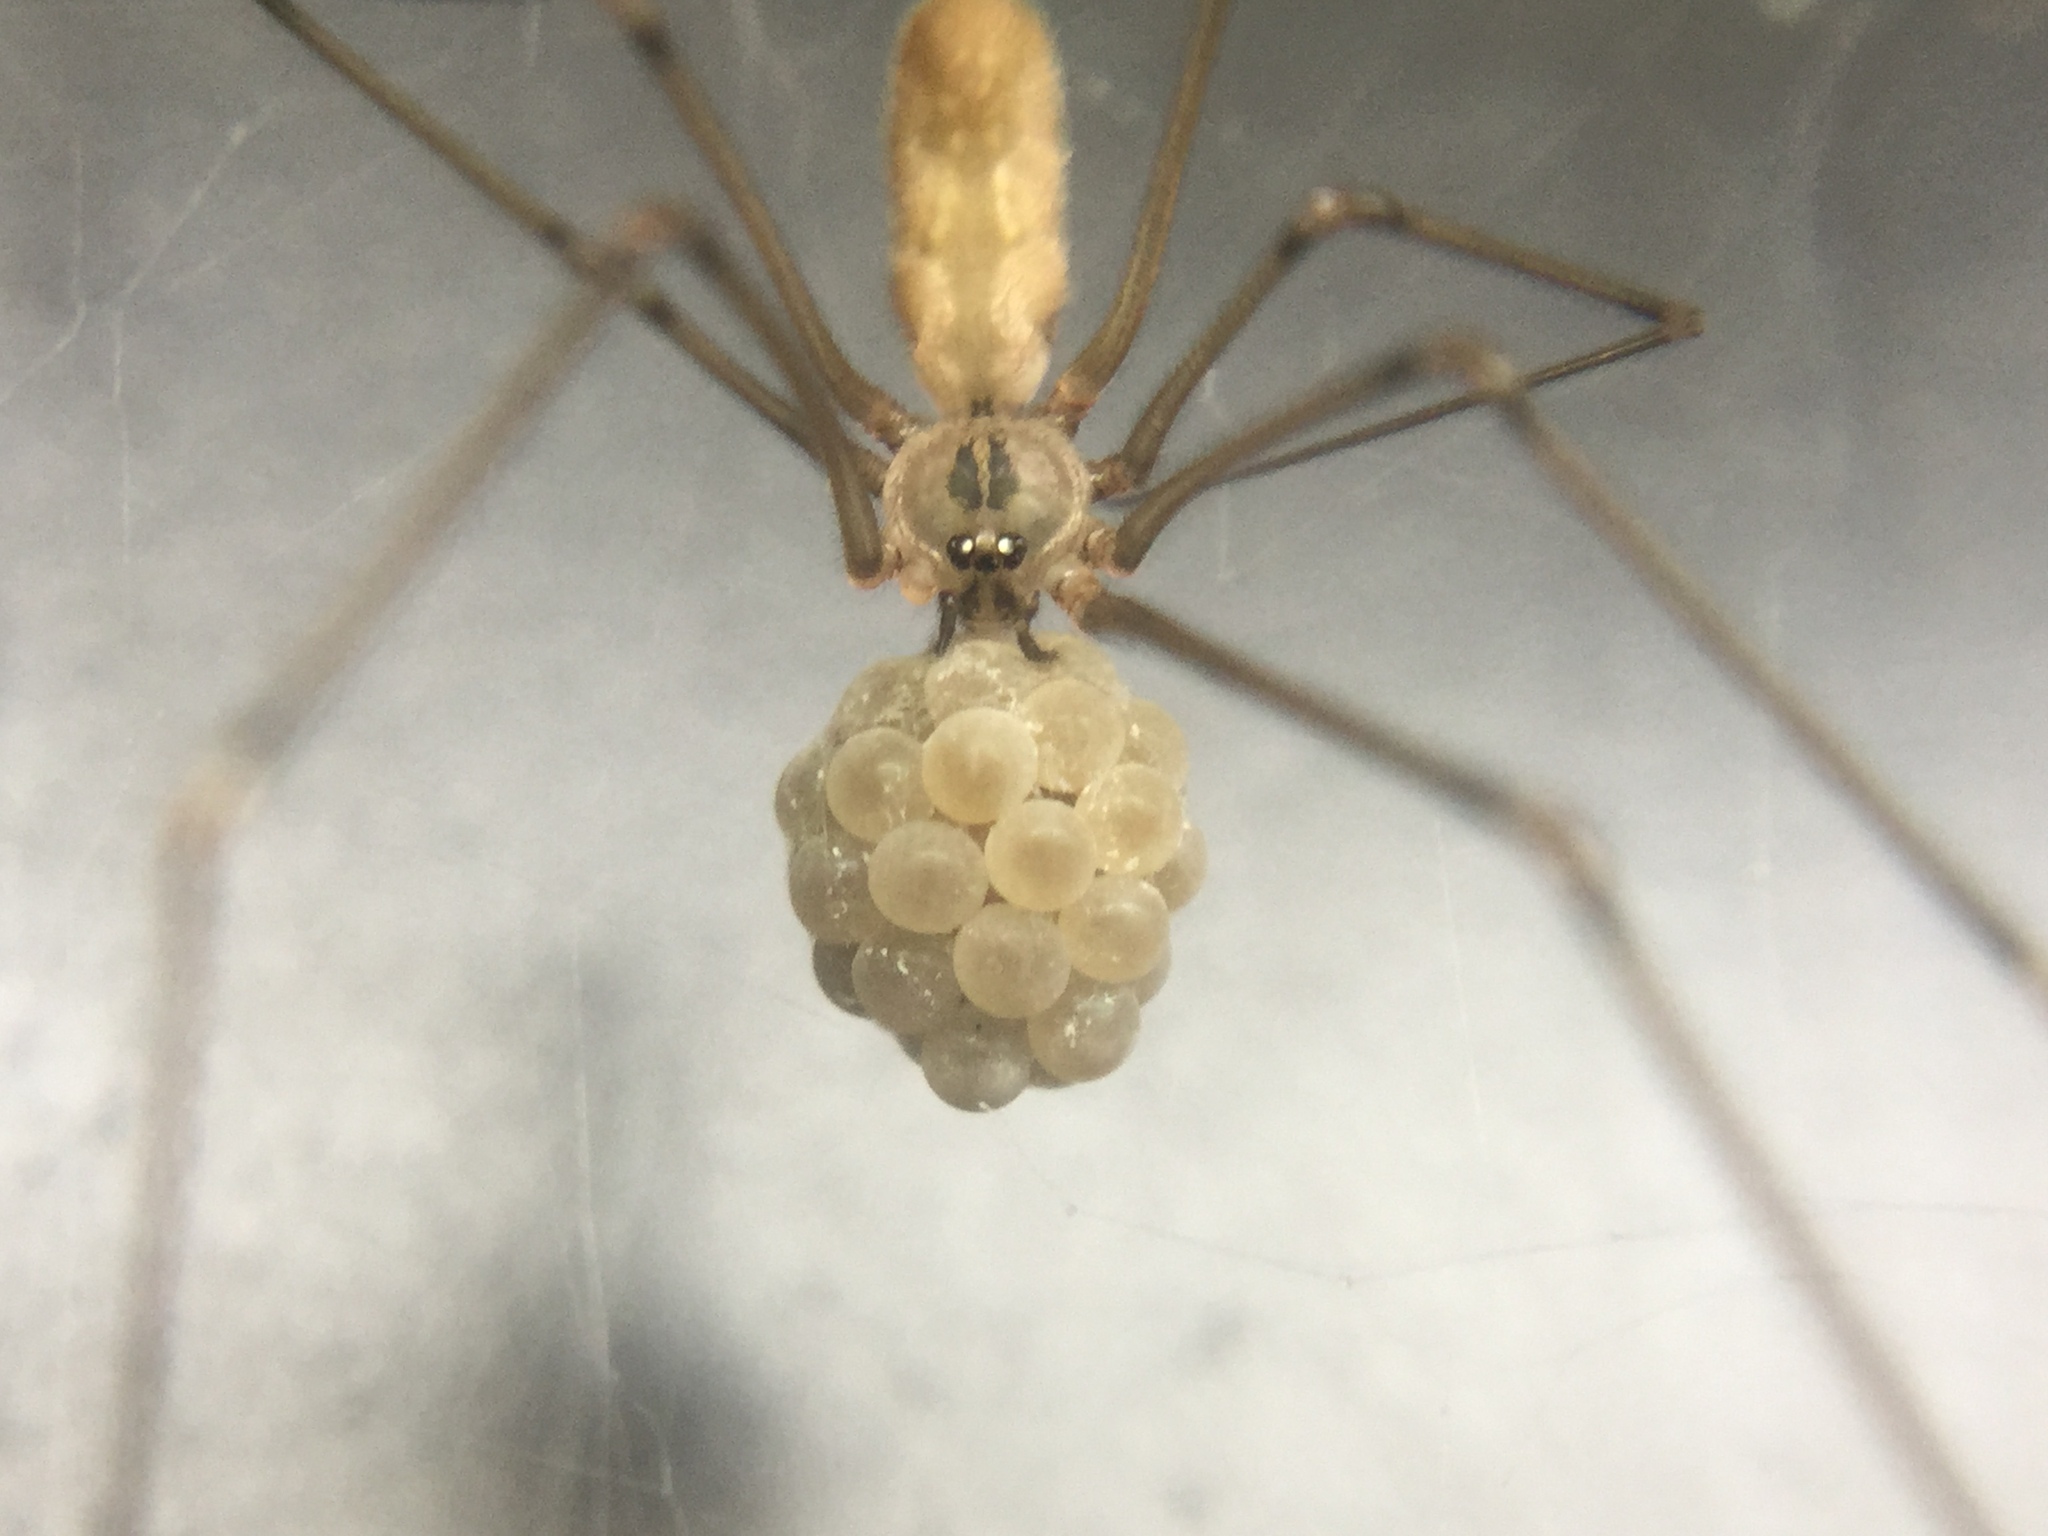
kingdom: Animalia
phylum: Arthropoda
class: Arachnida
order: Araneae
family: Pholcidae
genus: Pholcus
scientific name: Pholcus manueli
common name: Cellar spider
